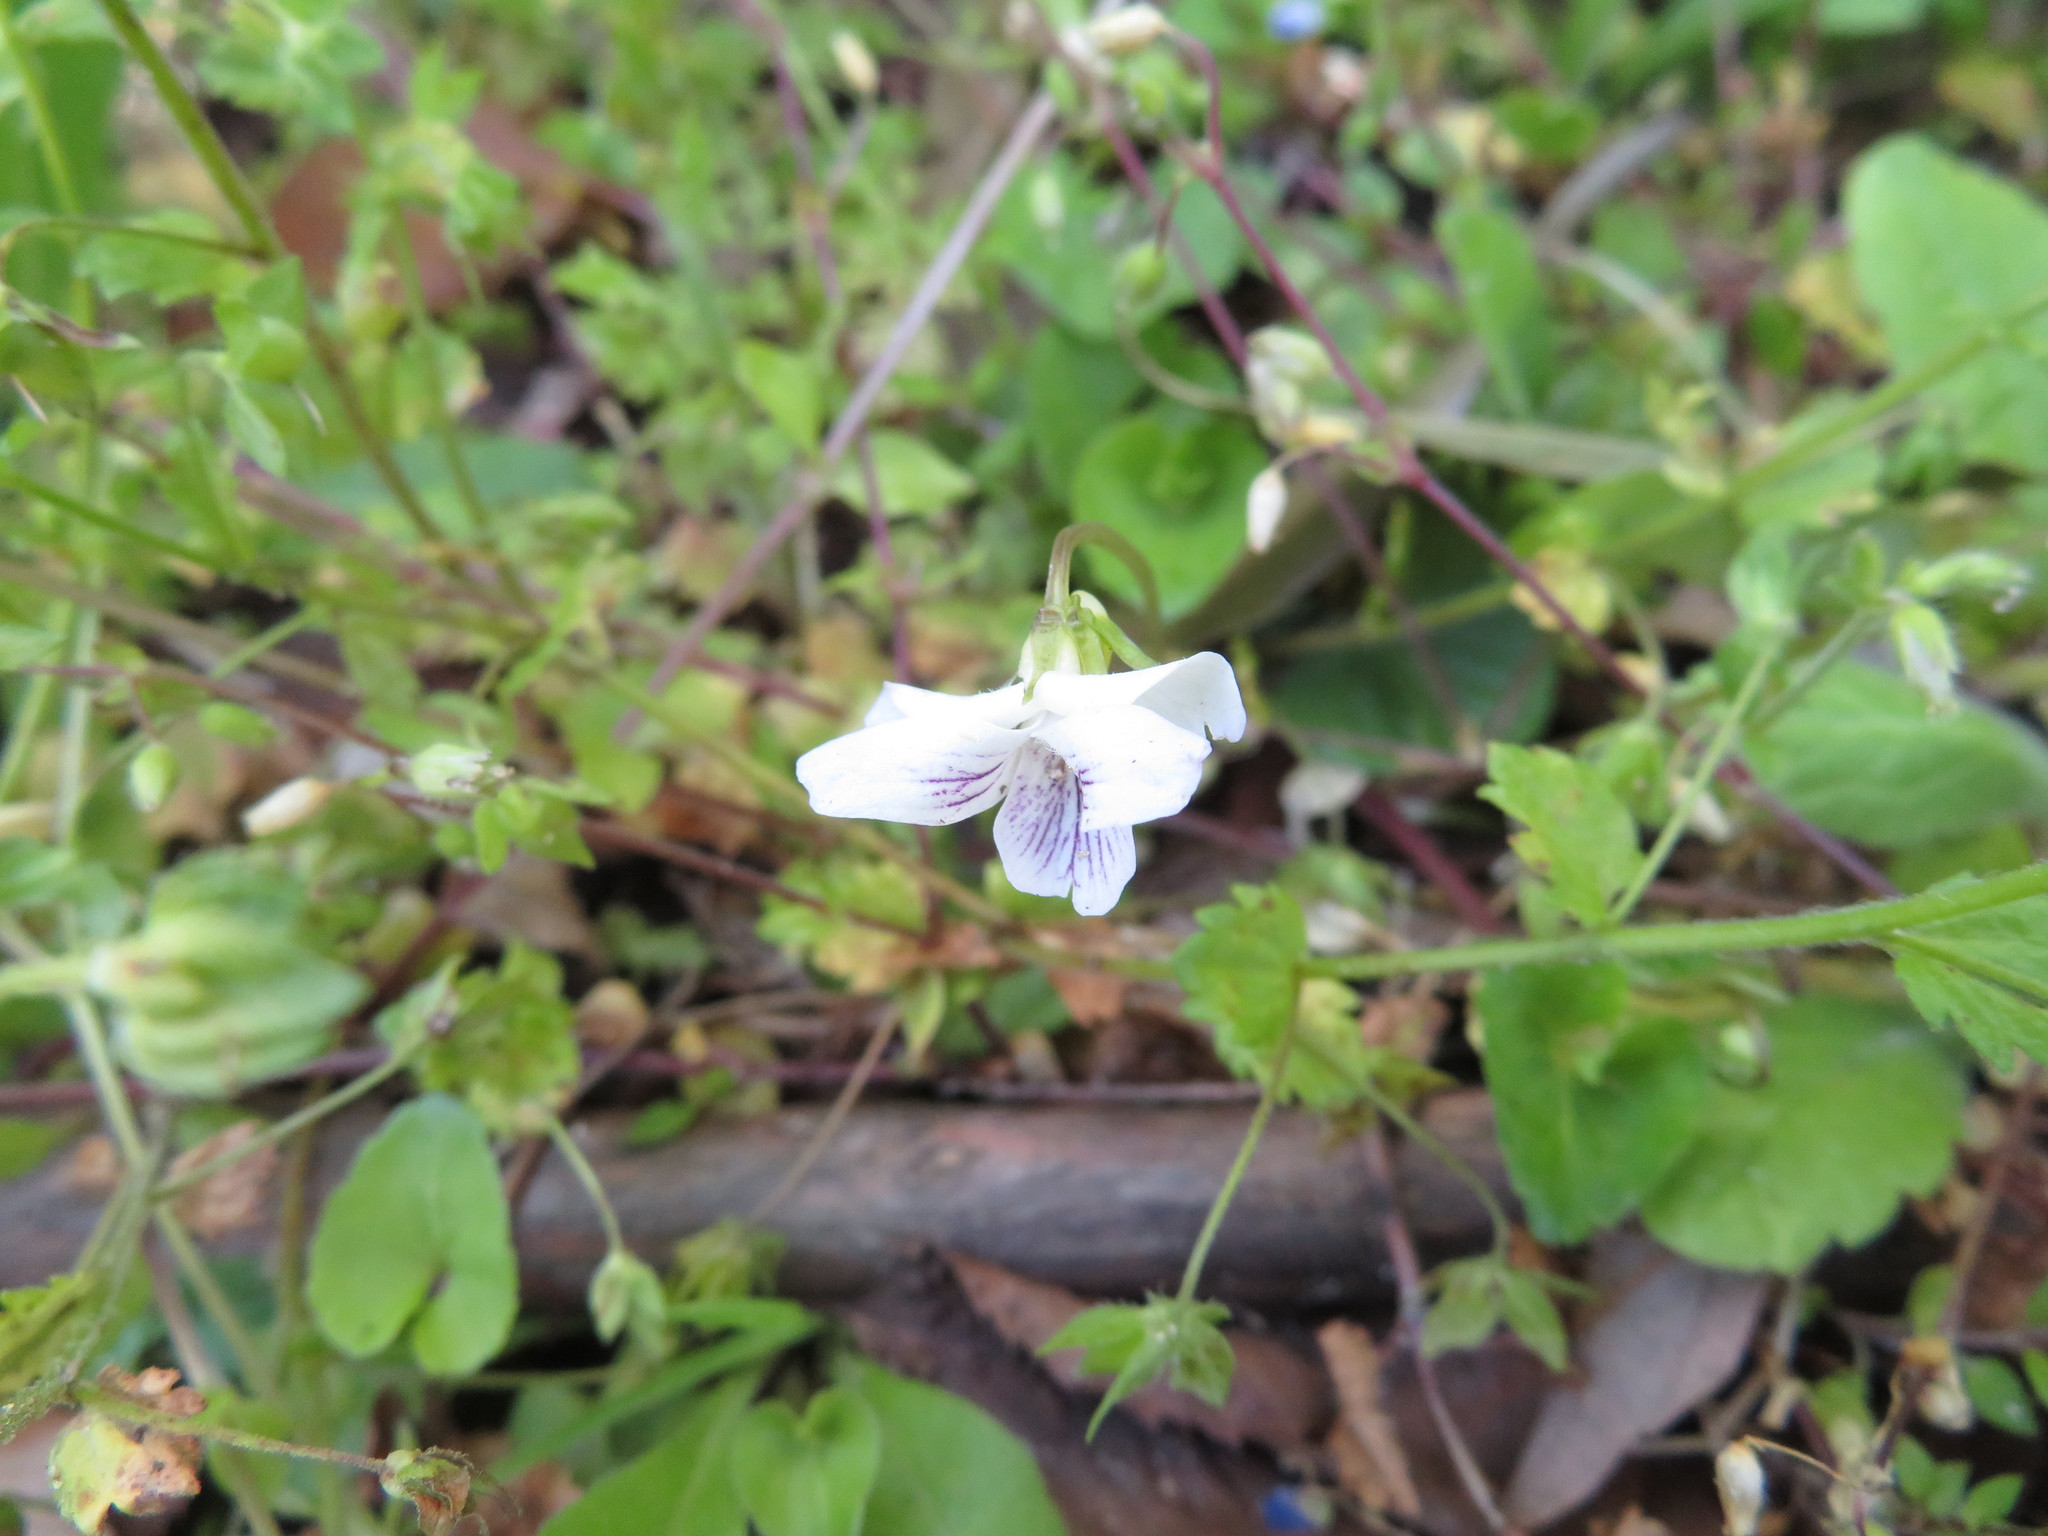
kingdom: Plantae
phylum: Tracheophyta
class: Magnoliopsida
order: Malpighiales
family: Violaceae
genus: Viola
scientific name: Viola
